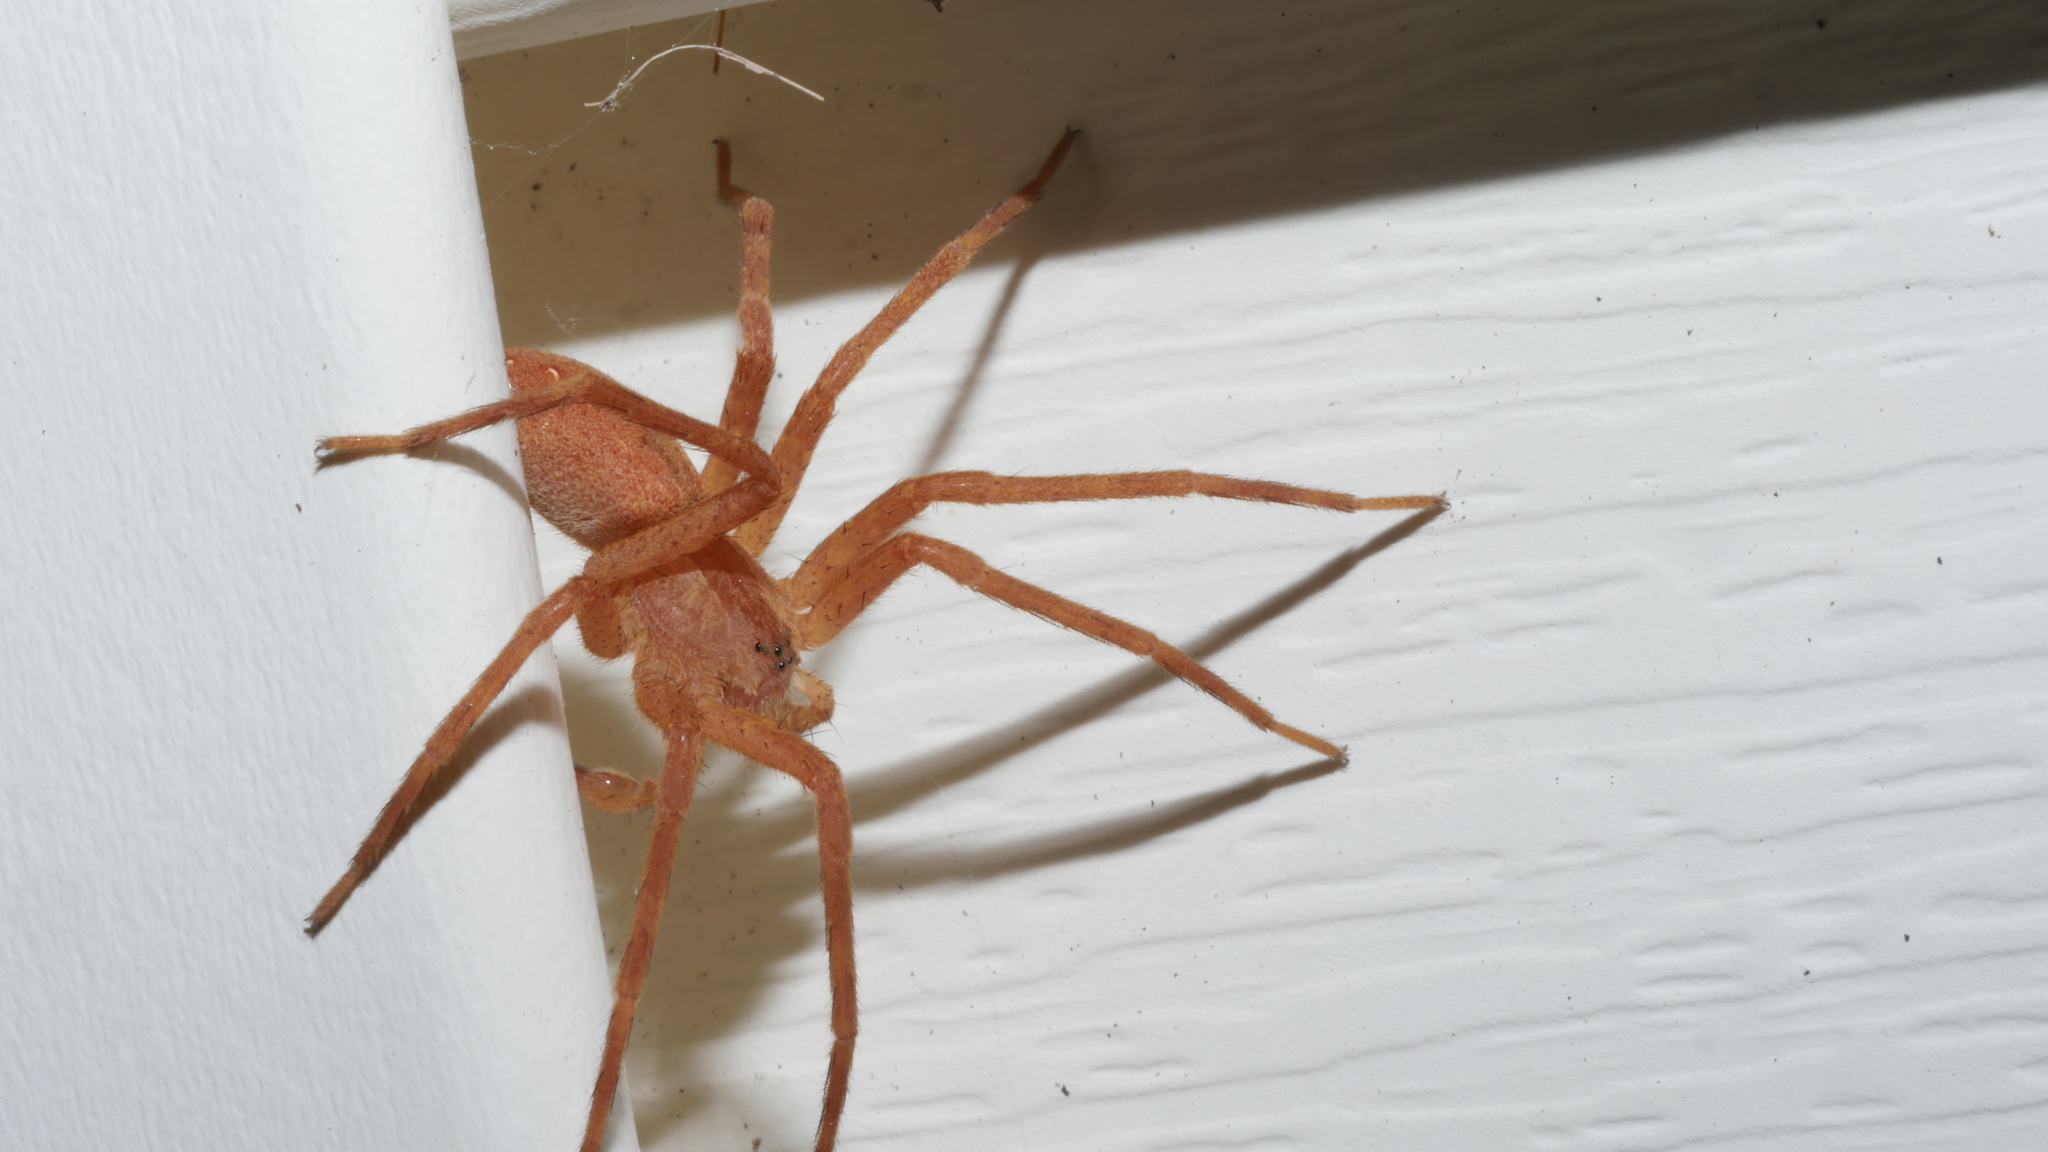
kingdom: Animalia
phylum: Arthropoda
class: Arachnida
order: Araneae
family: Pisauridae
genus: Pisaurina
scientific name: Pisaurina mira
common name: American nursery web spider
